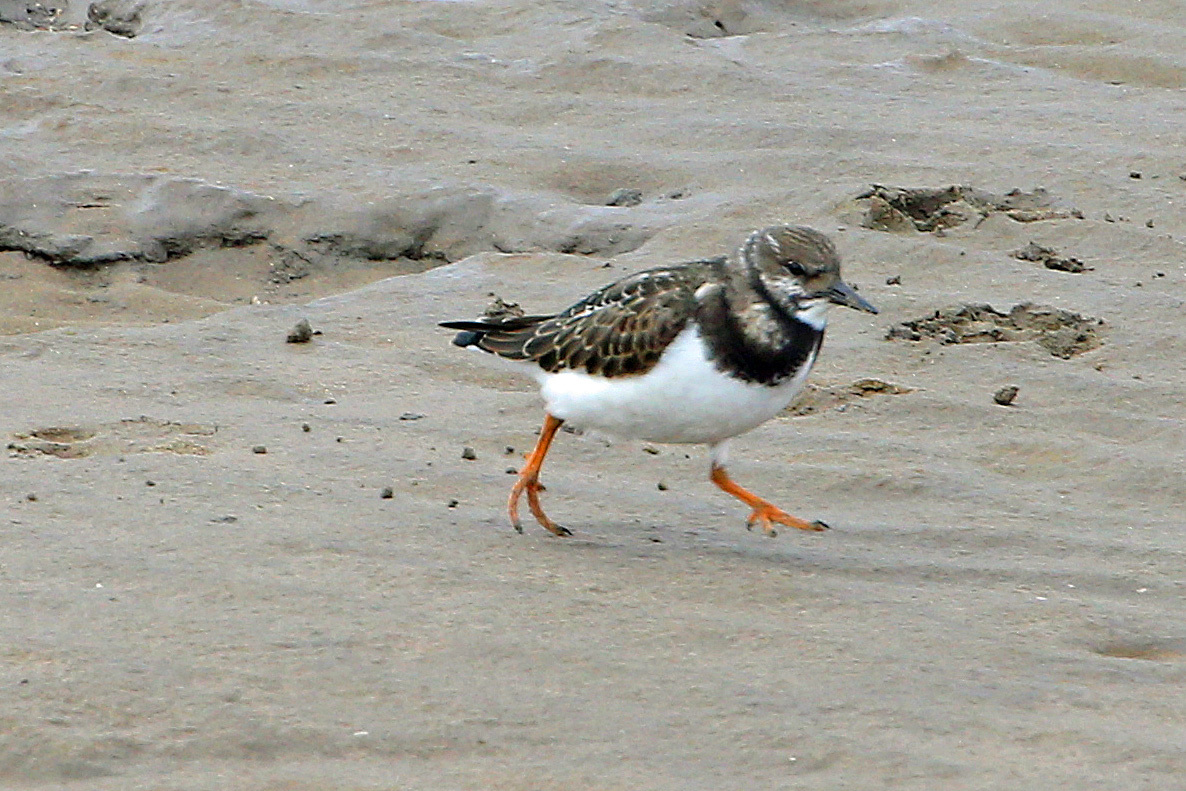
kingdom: Animalia
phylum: Chordata
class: Aves
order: Charadriiformes
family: Scolopacidae
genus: Arenaria
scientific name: Arenaria interpres
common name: Ruddy turnstone
